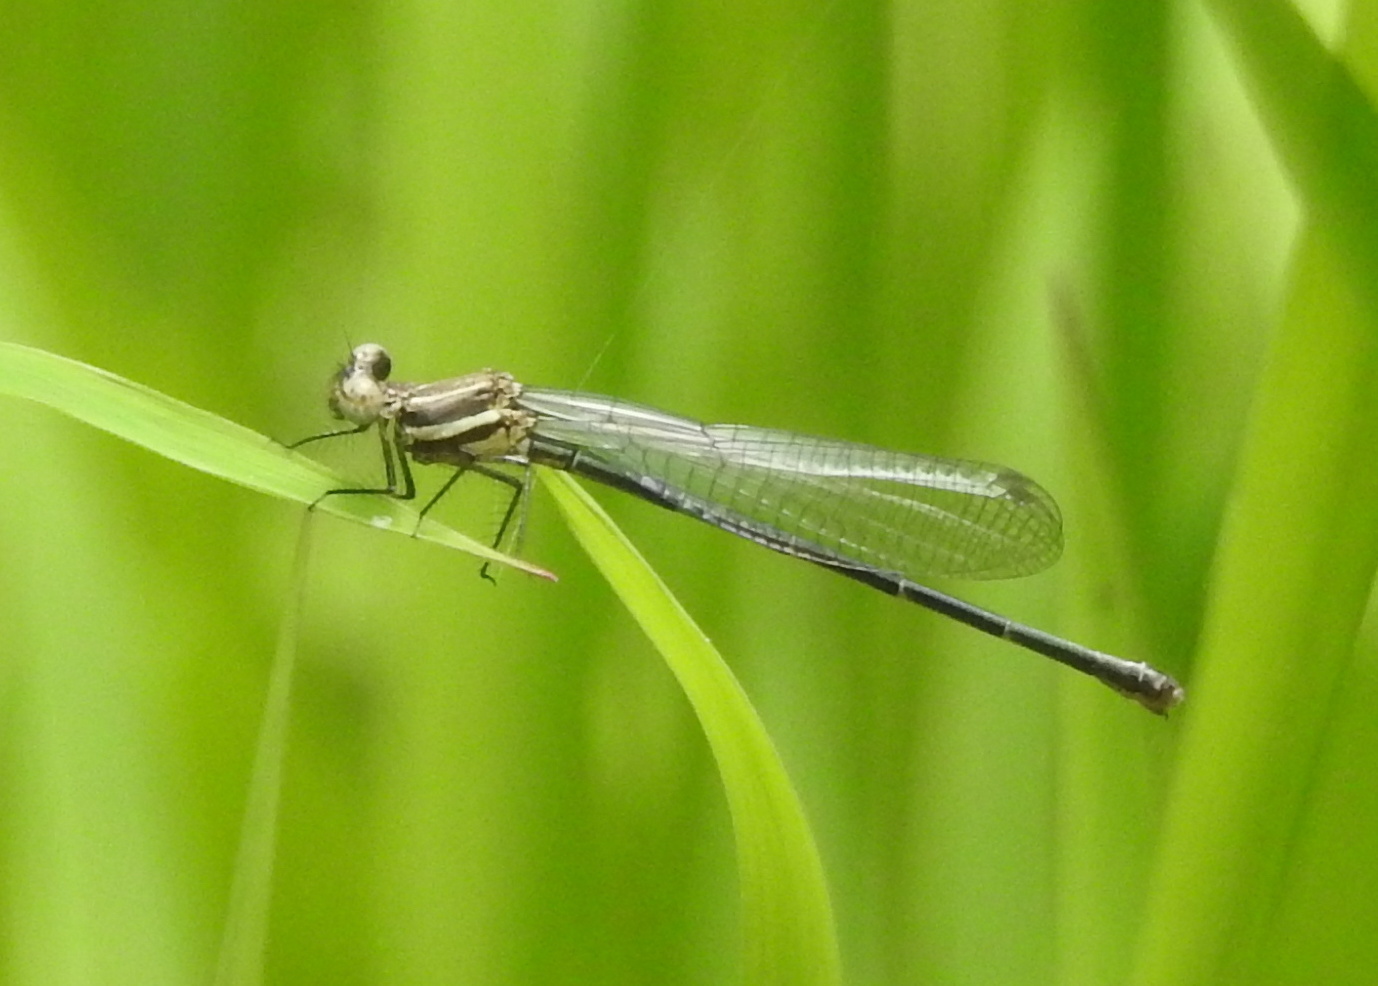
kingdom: Animalia
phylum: Arthropoda
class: Insecta
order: Odonata
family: Platycnemididae
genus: Onychargia
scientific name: Onychargia atrocyana
